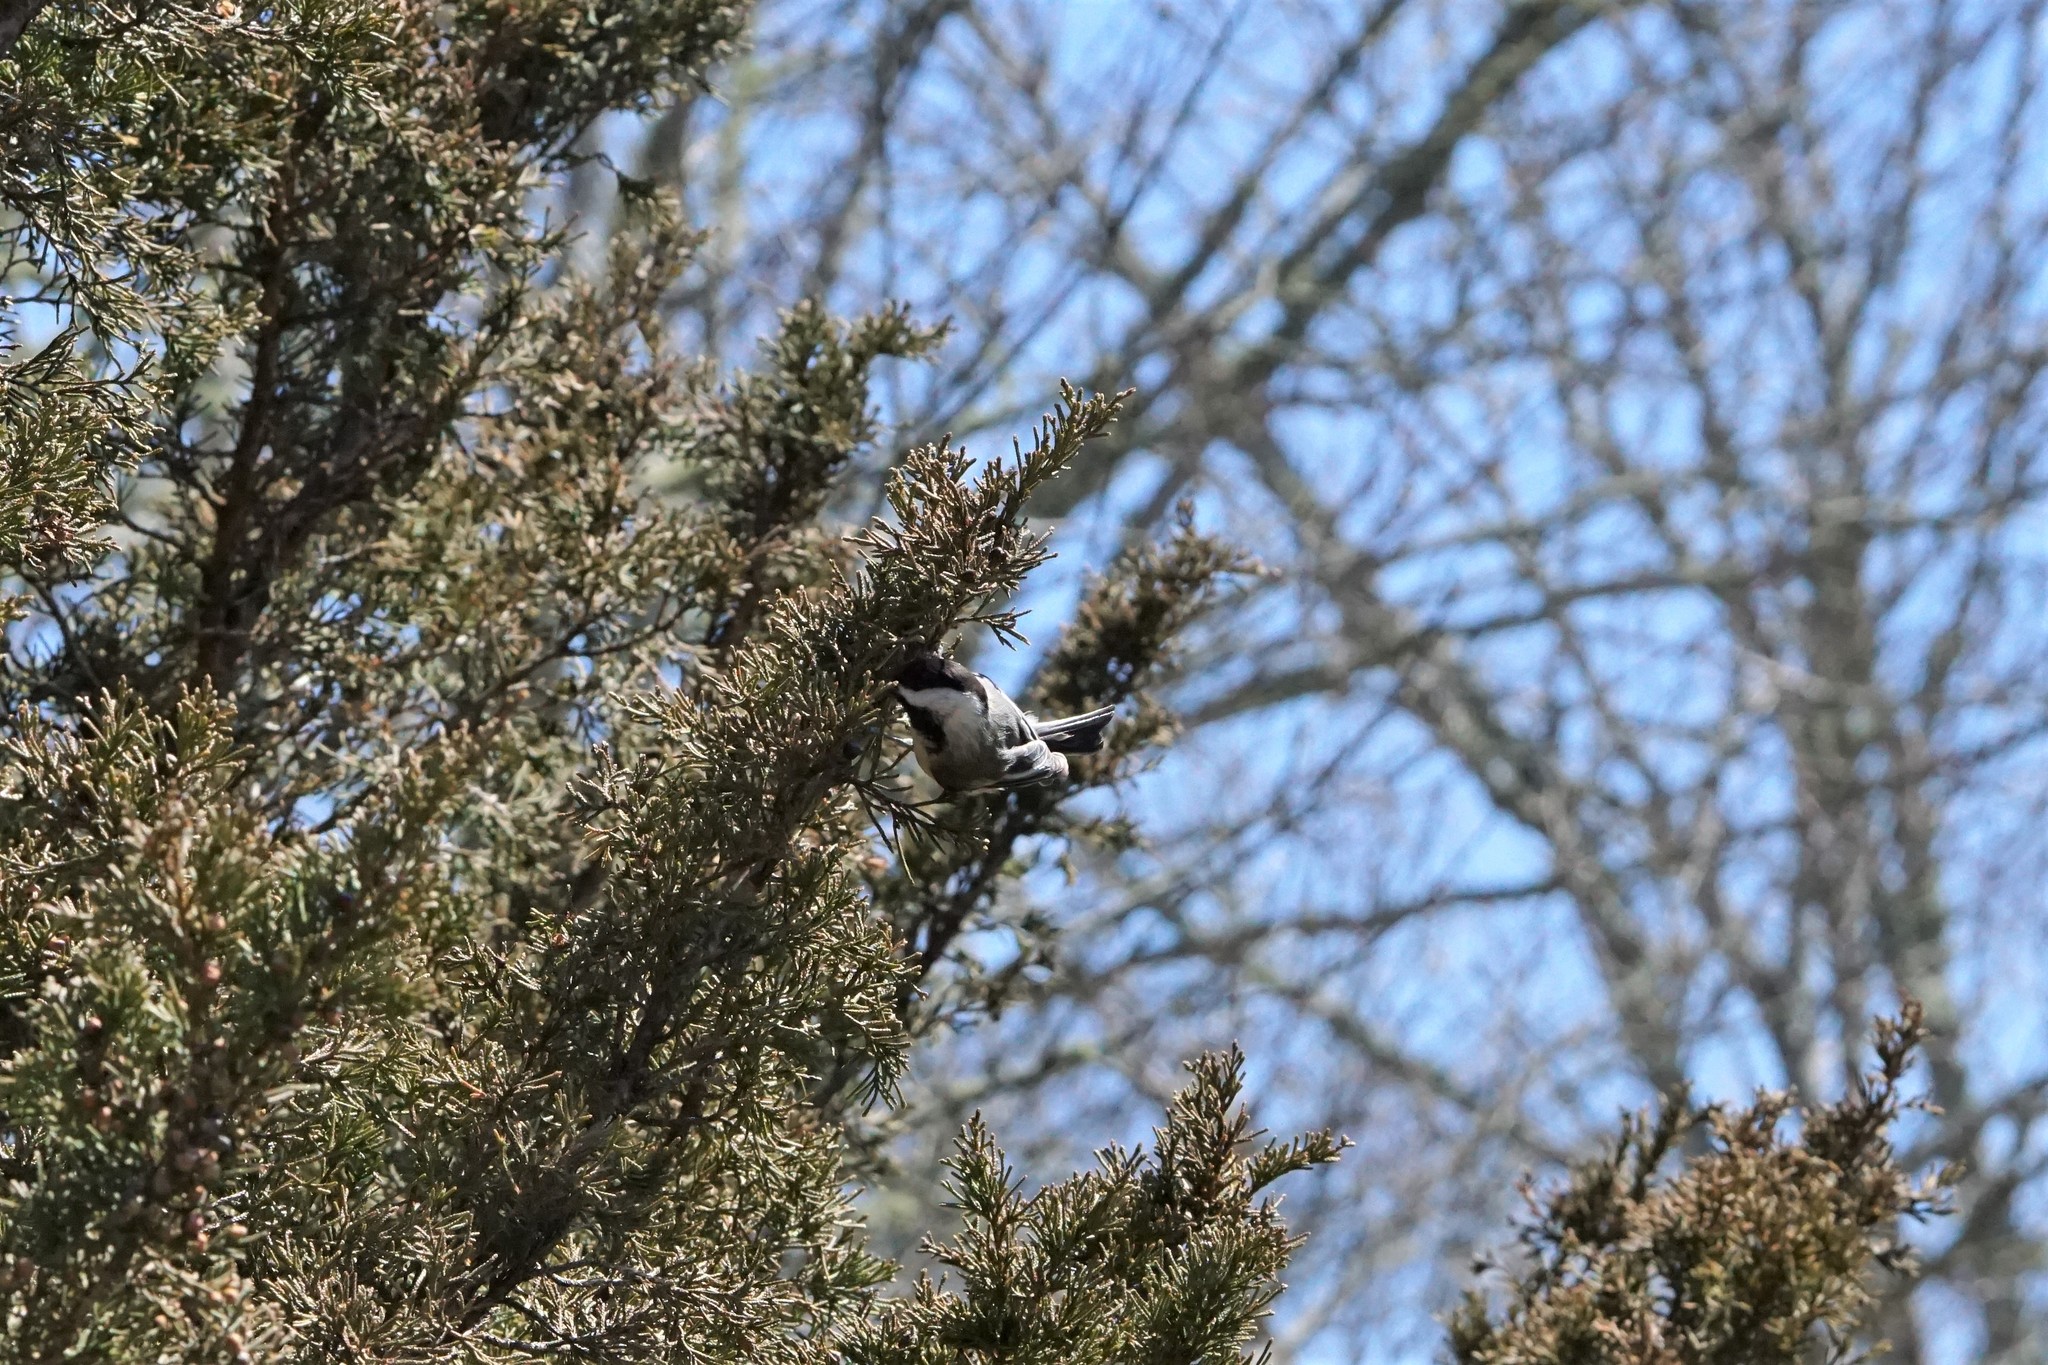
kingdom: Animalia
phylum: Chordata
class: Aves
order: Passeriformes
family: Paridae
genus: Poecile
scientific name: Poecile atricapillus
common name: Black-capped chickadee
